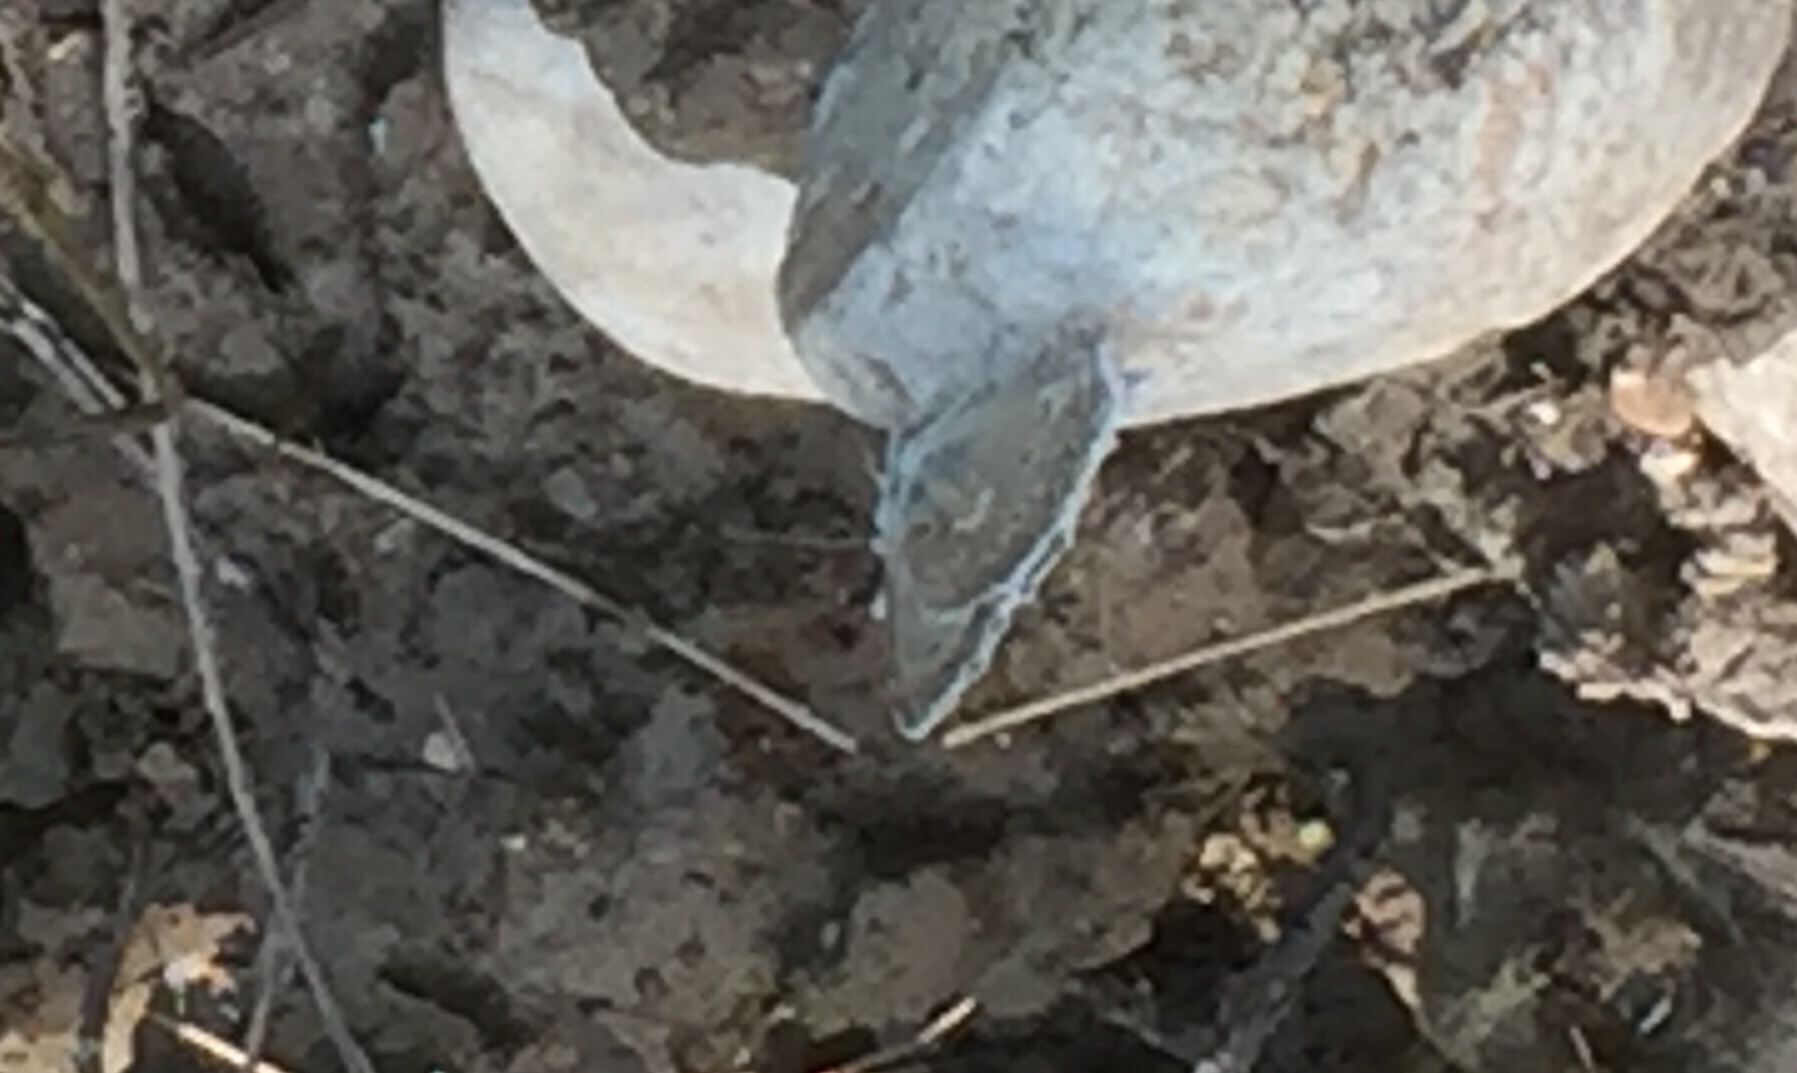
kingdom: Animalia
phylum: Arthropoda
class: Insecta
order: Lepidoptera
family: Lycaenidae
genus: Polyommatus
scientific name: Polyommatus daphnis
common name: Meleager's blue
